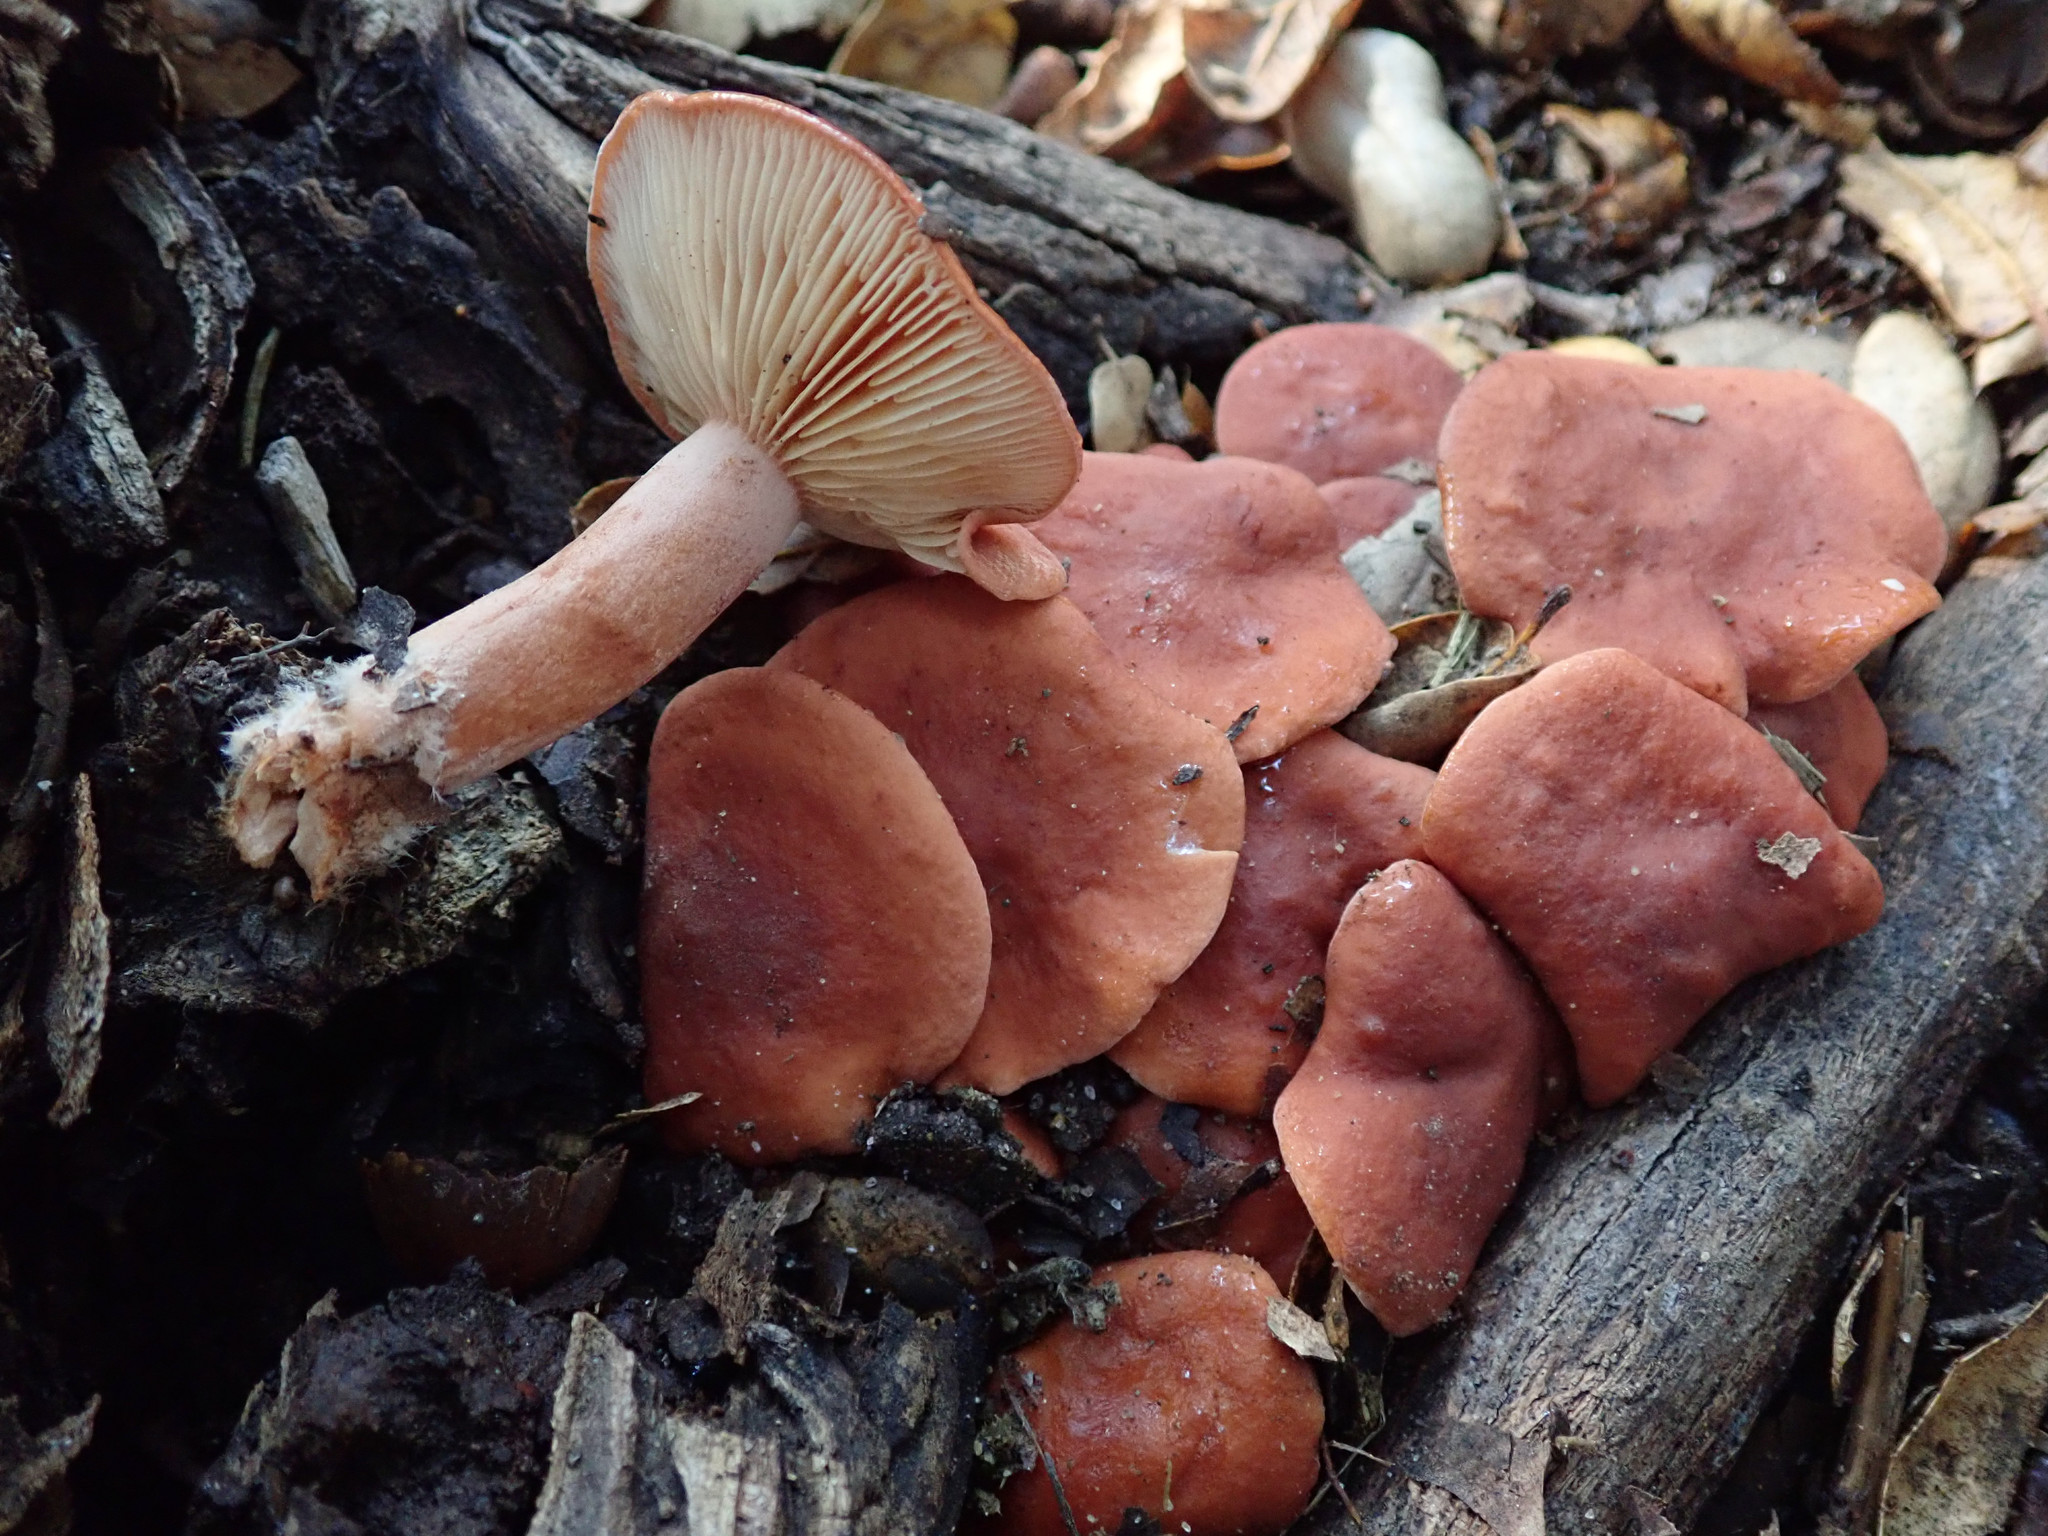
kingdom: Fungi
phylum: Basidiomycota
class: Agaricomycetes
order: Russulales
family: Russulaceae
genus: Lactarius
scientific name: Lactarius rufulus
